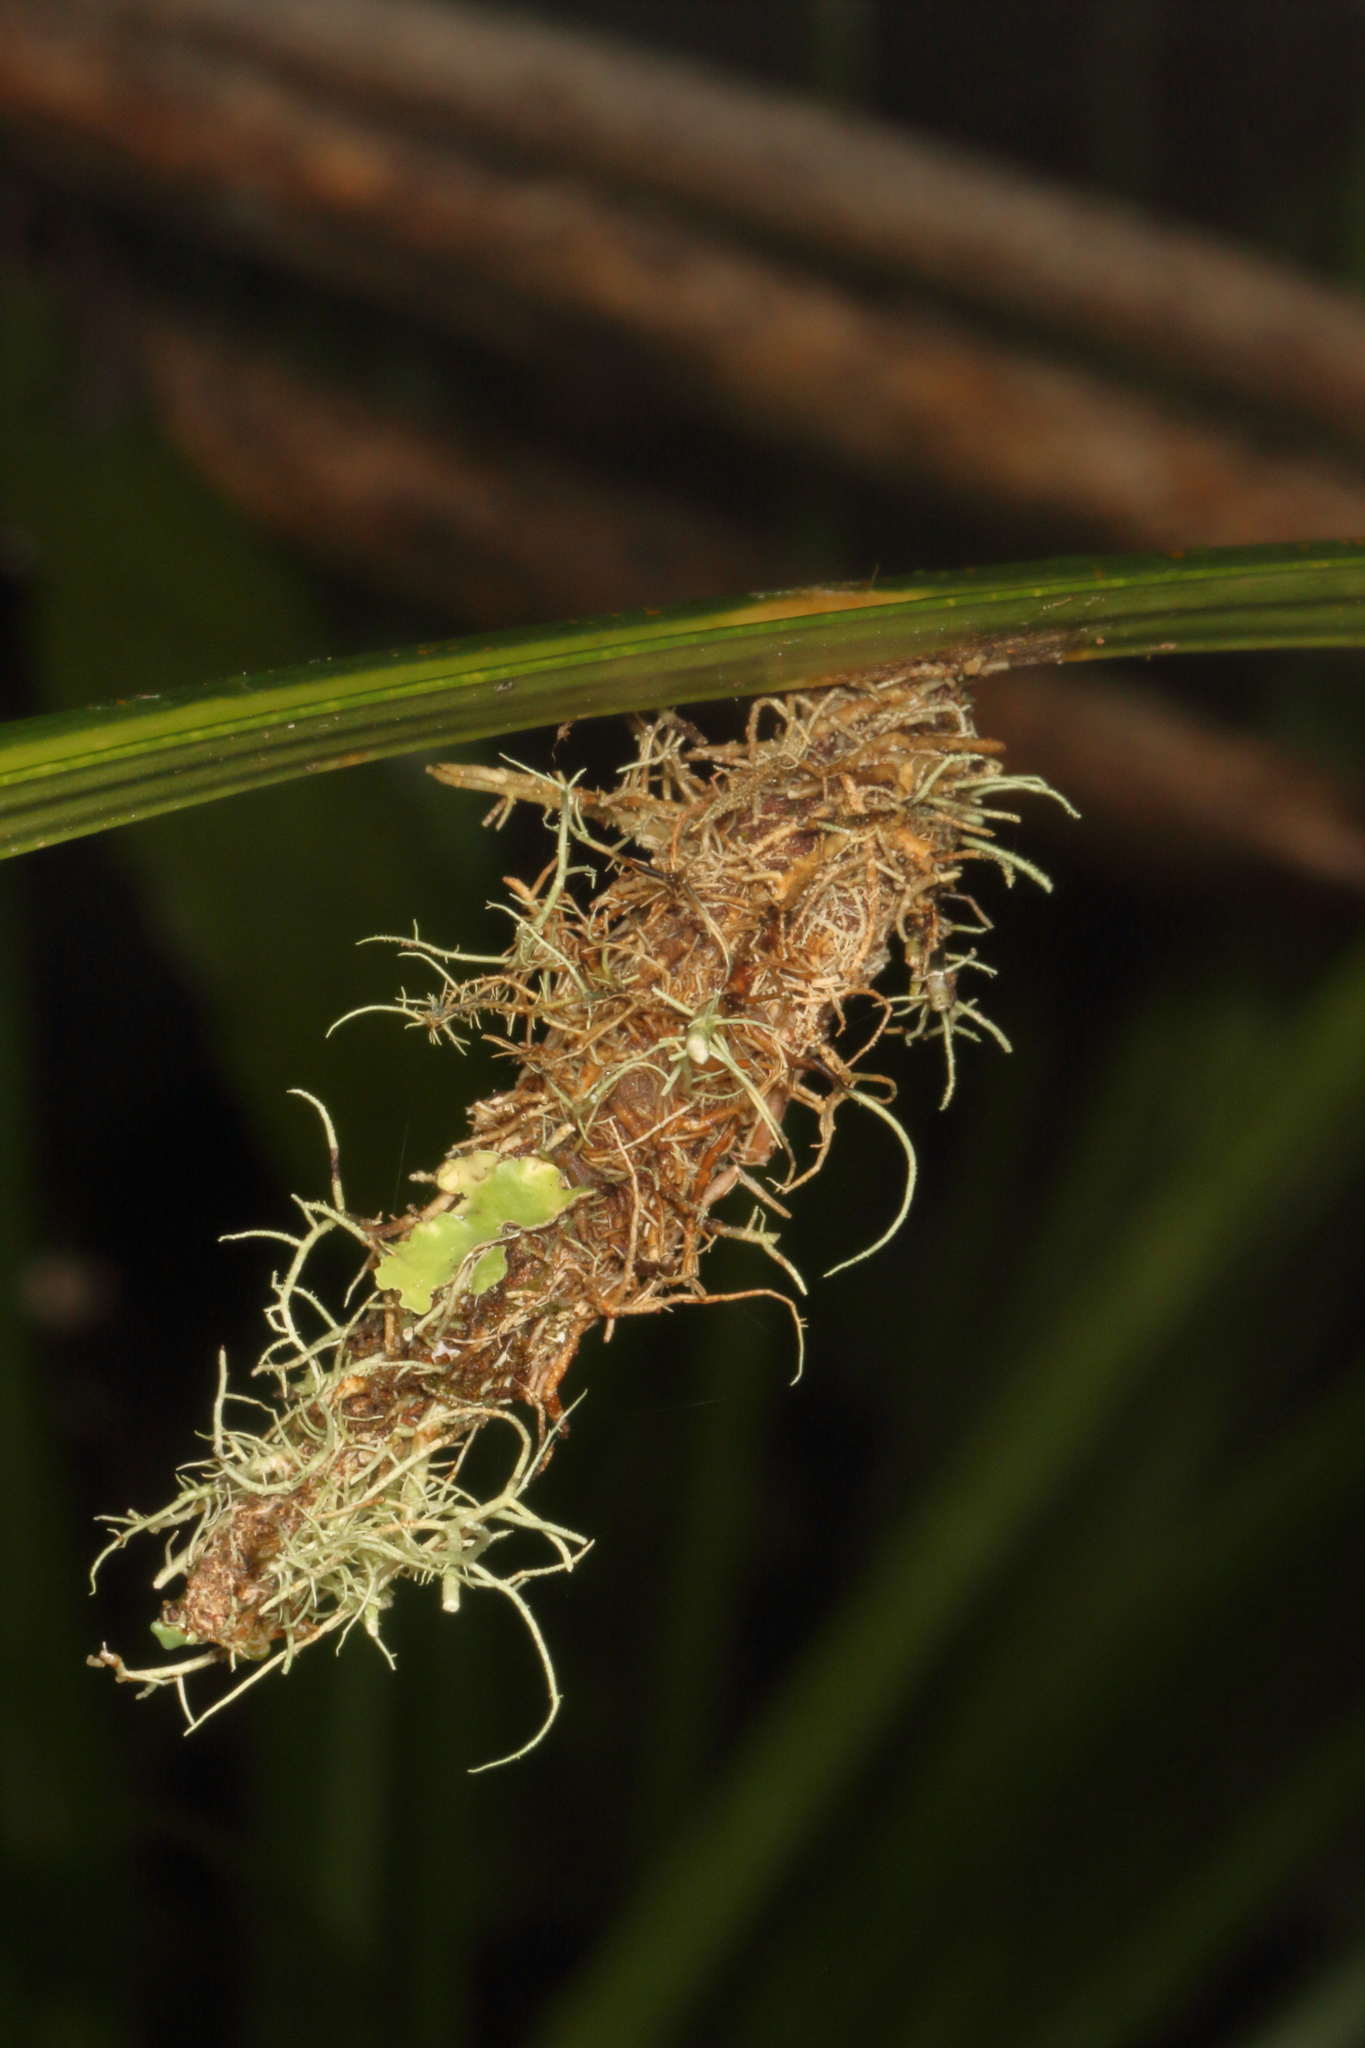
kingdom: Animalia
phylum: Arthropoda
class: Insecta
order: Lepidoptera
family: Psychidae
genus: Liothula
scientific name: Liothula omnivora
